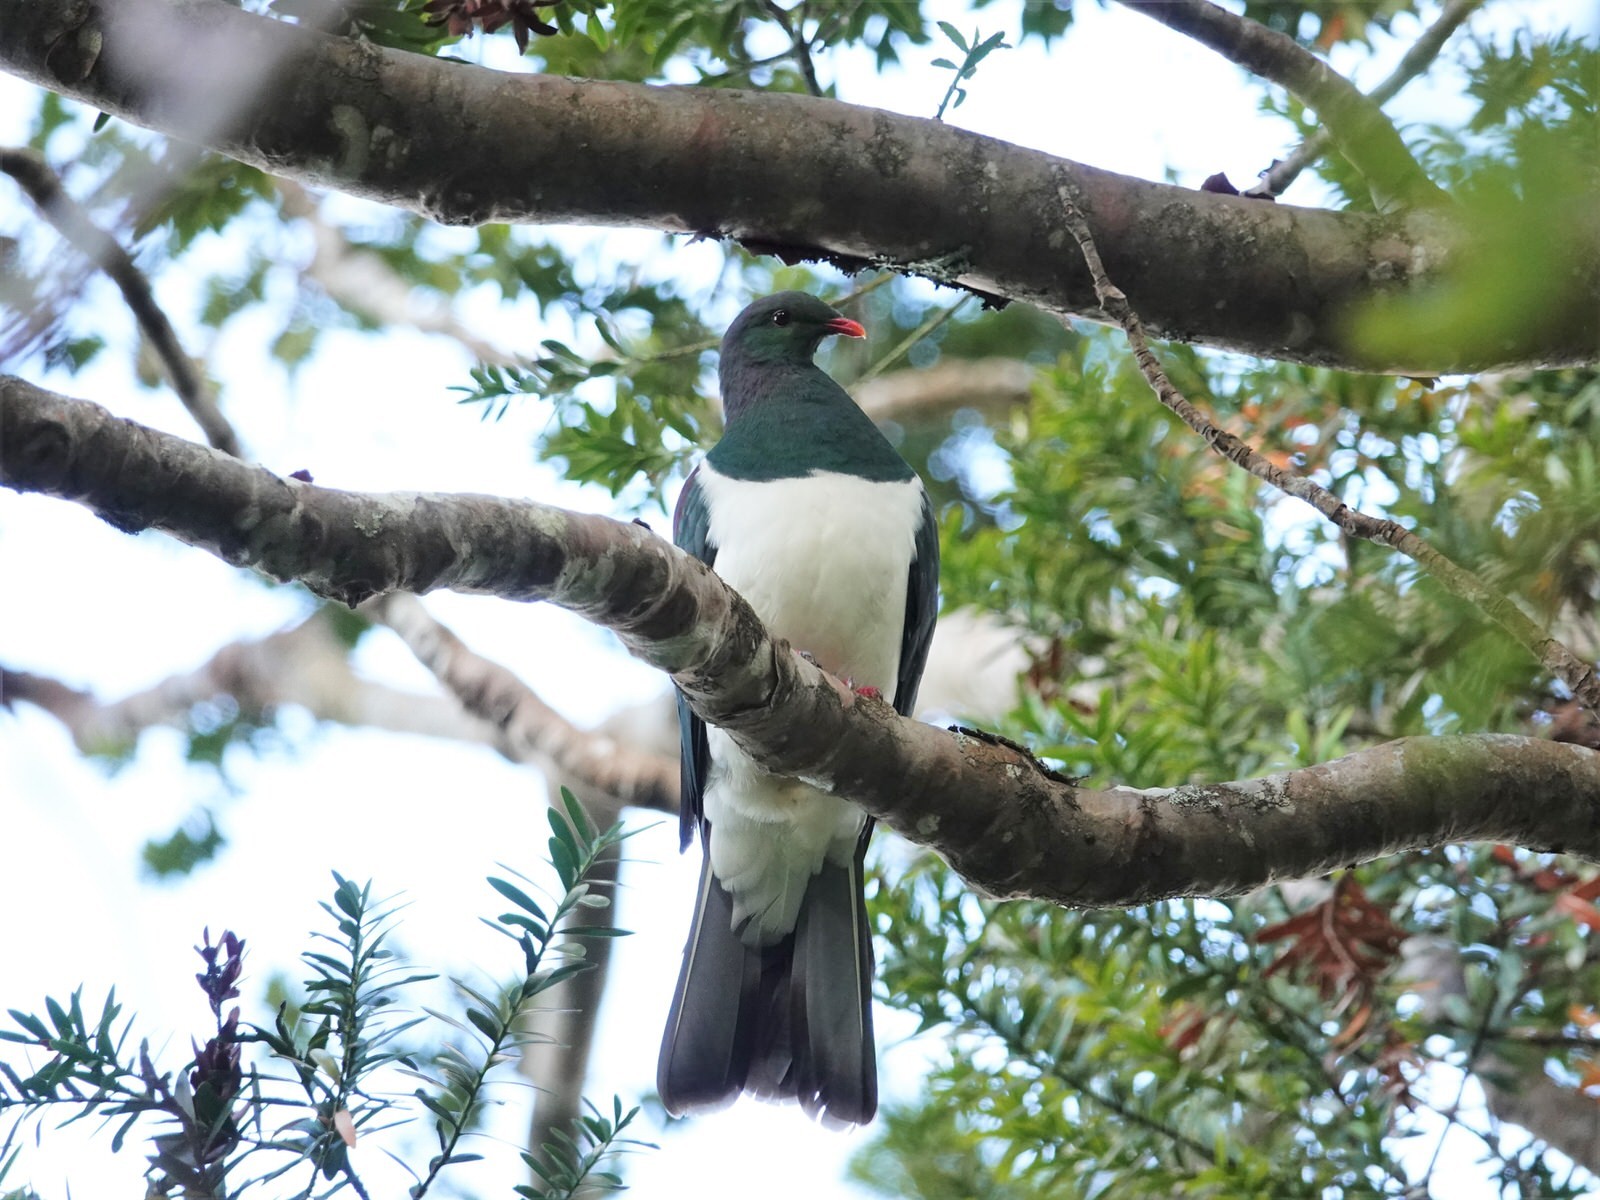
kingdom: Animalia
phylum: Chordata
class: Aves
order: Columbiformes
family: Columbidae
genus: Hemiphaga
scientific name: Hemiphaga novaeseelandiae
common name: New zealand pigeon
